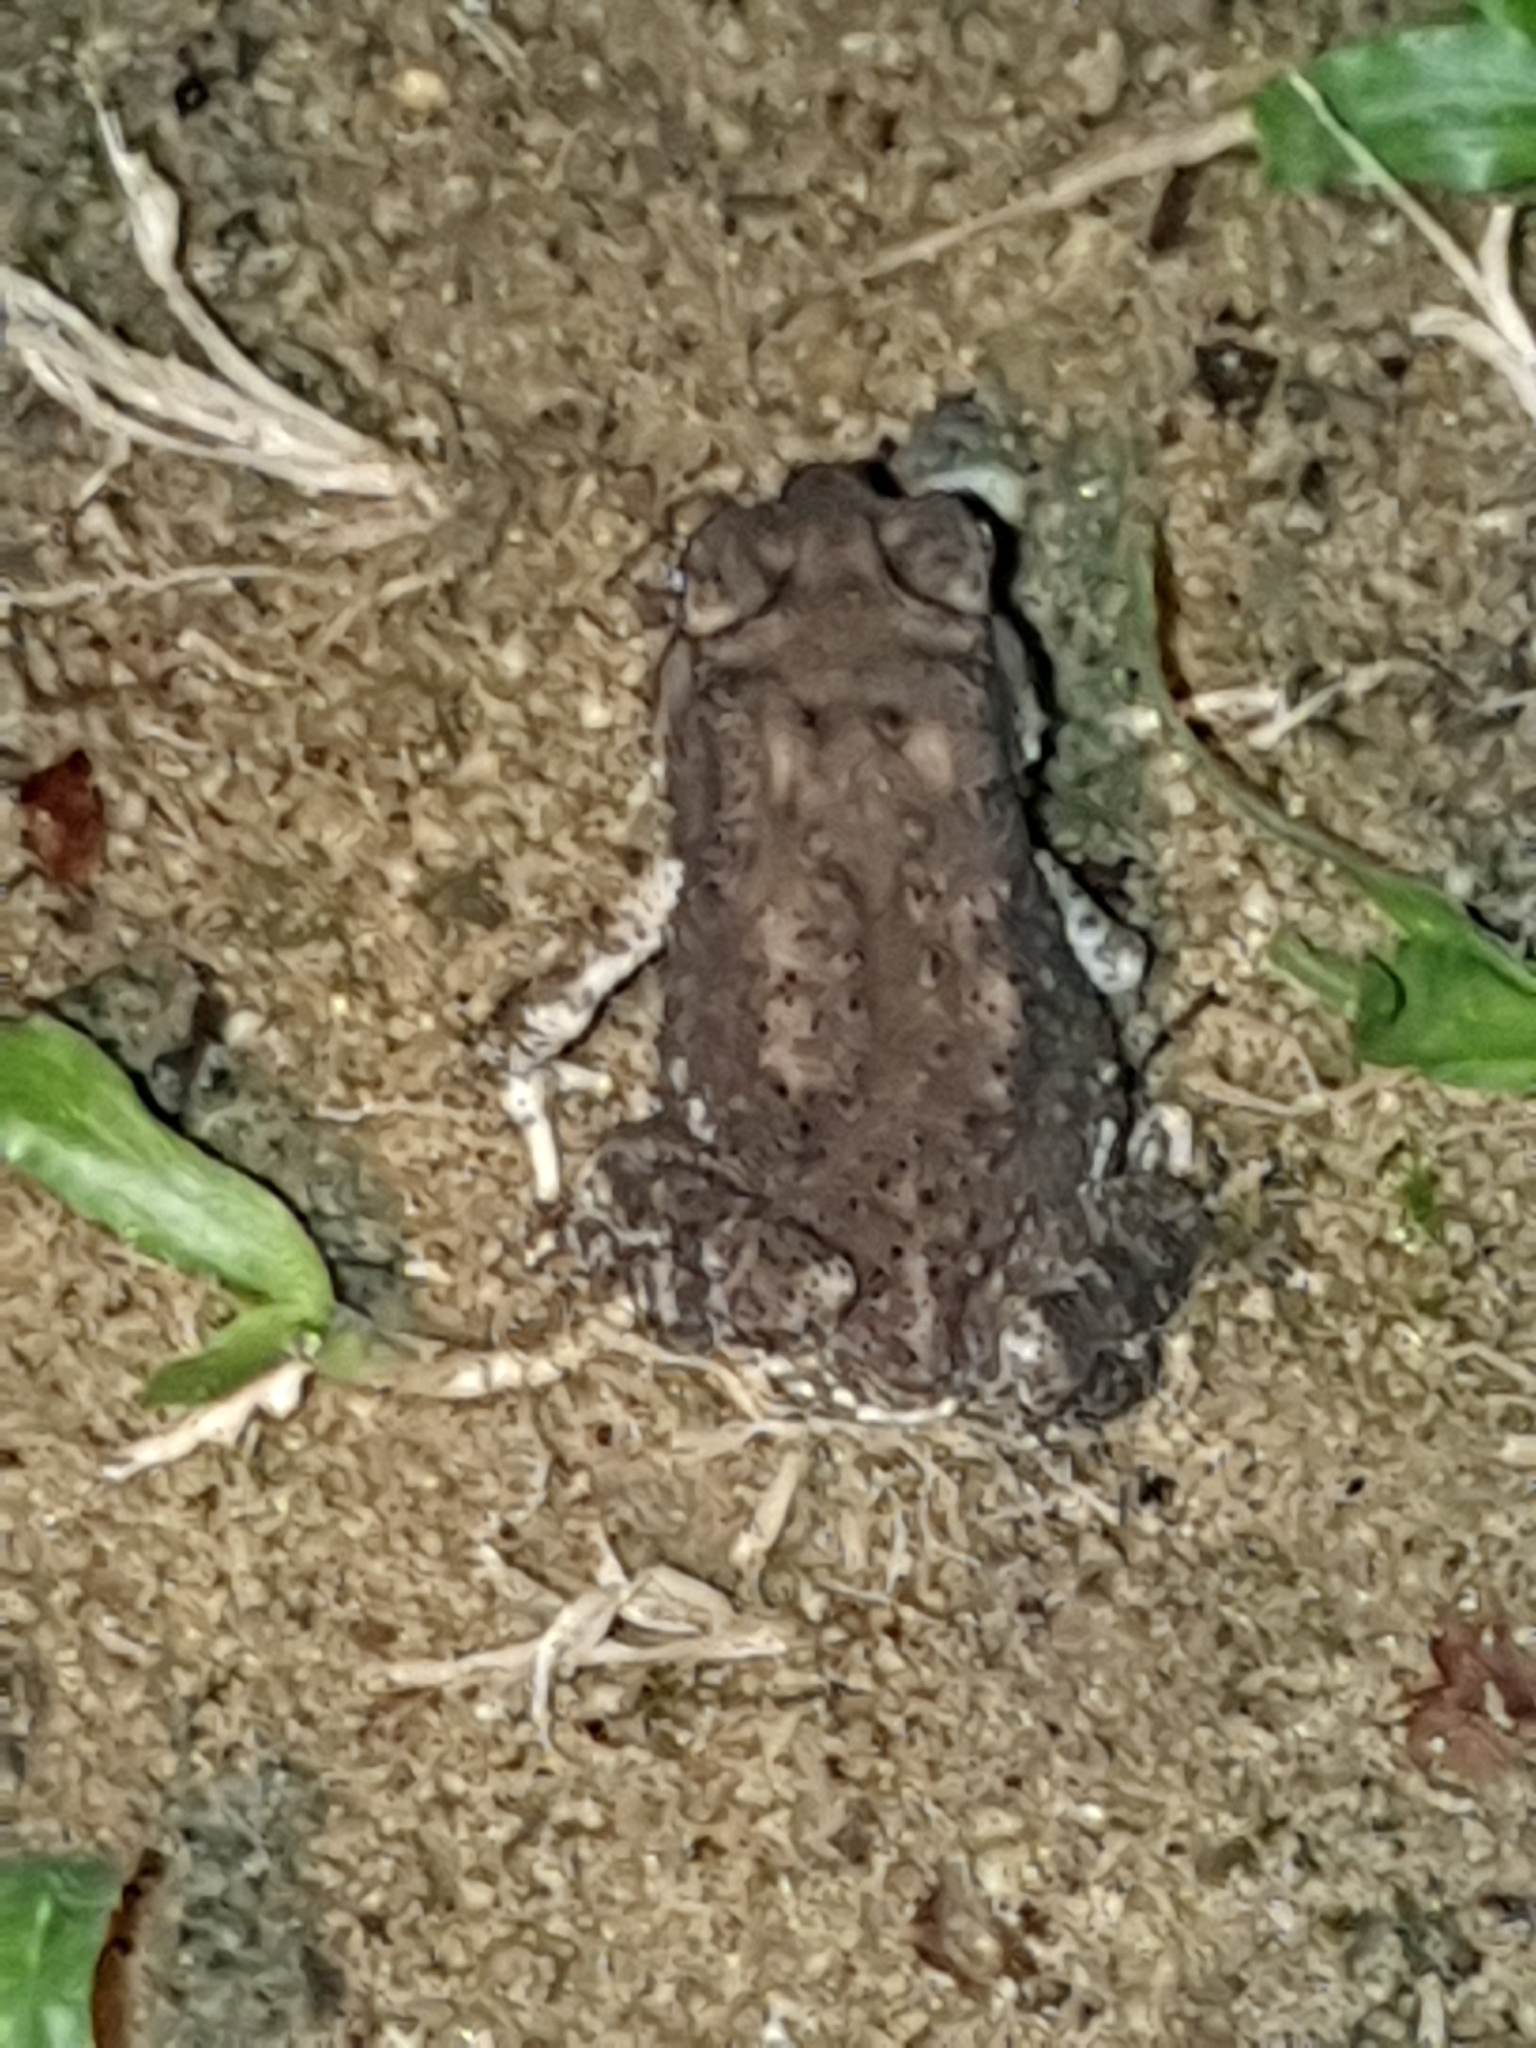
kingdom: Animalia
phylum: Chordata
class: Amphibia
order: Anura
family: Bufonidae
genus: Duttaphrynus
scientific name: Duttaphrynus melanostictus
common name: Common sunda toad
